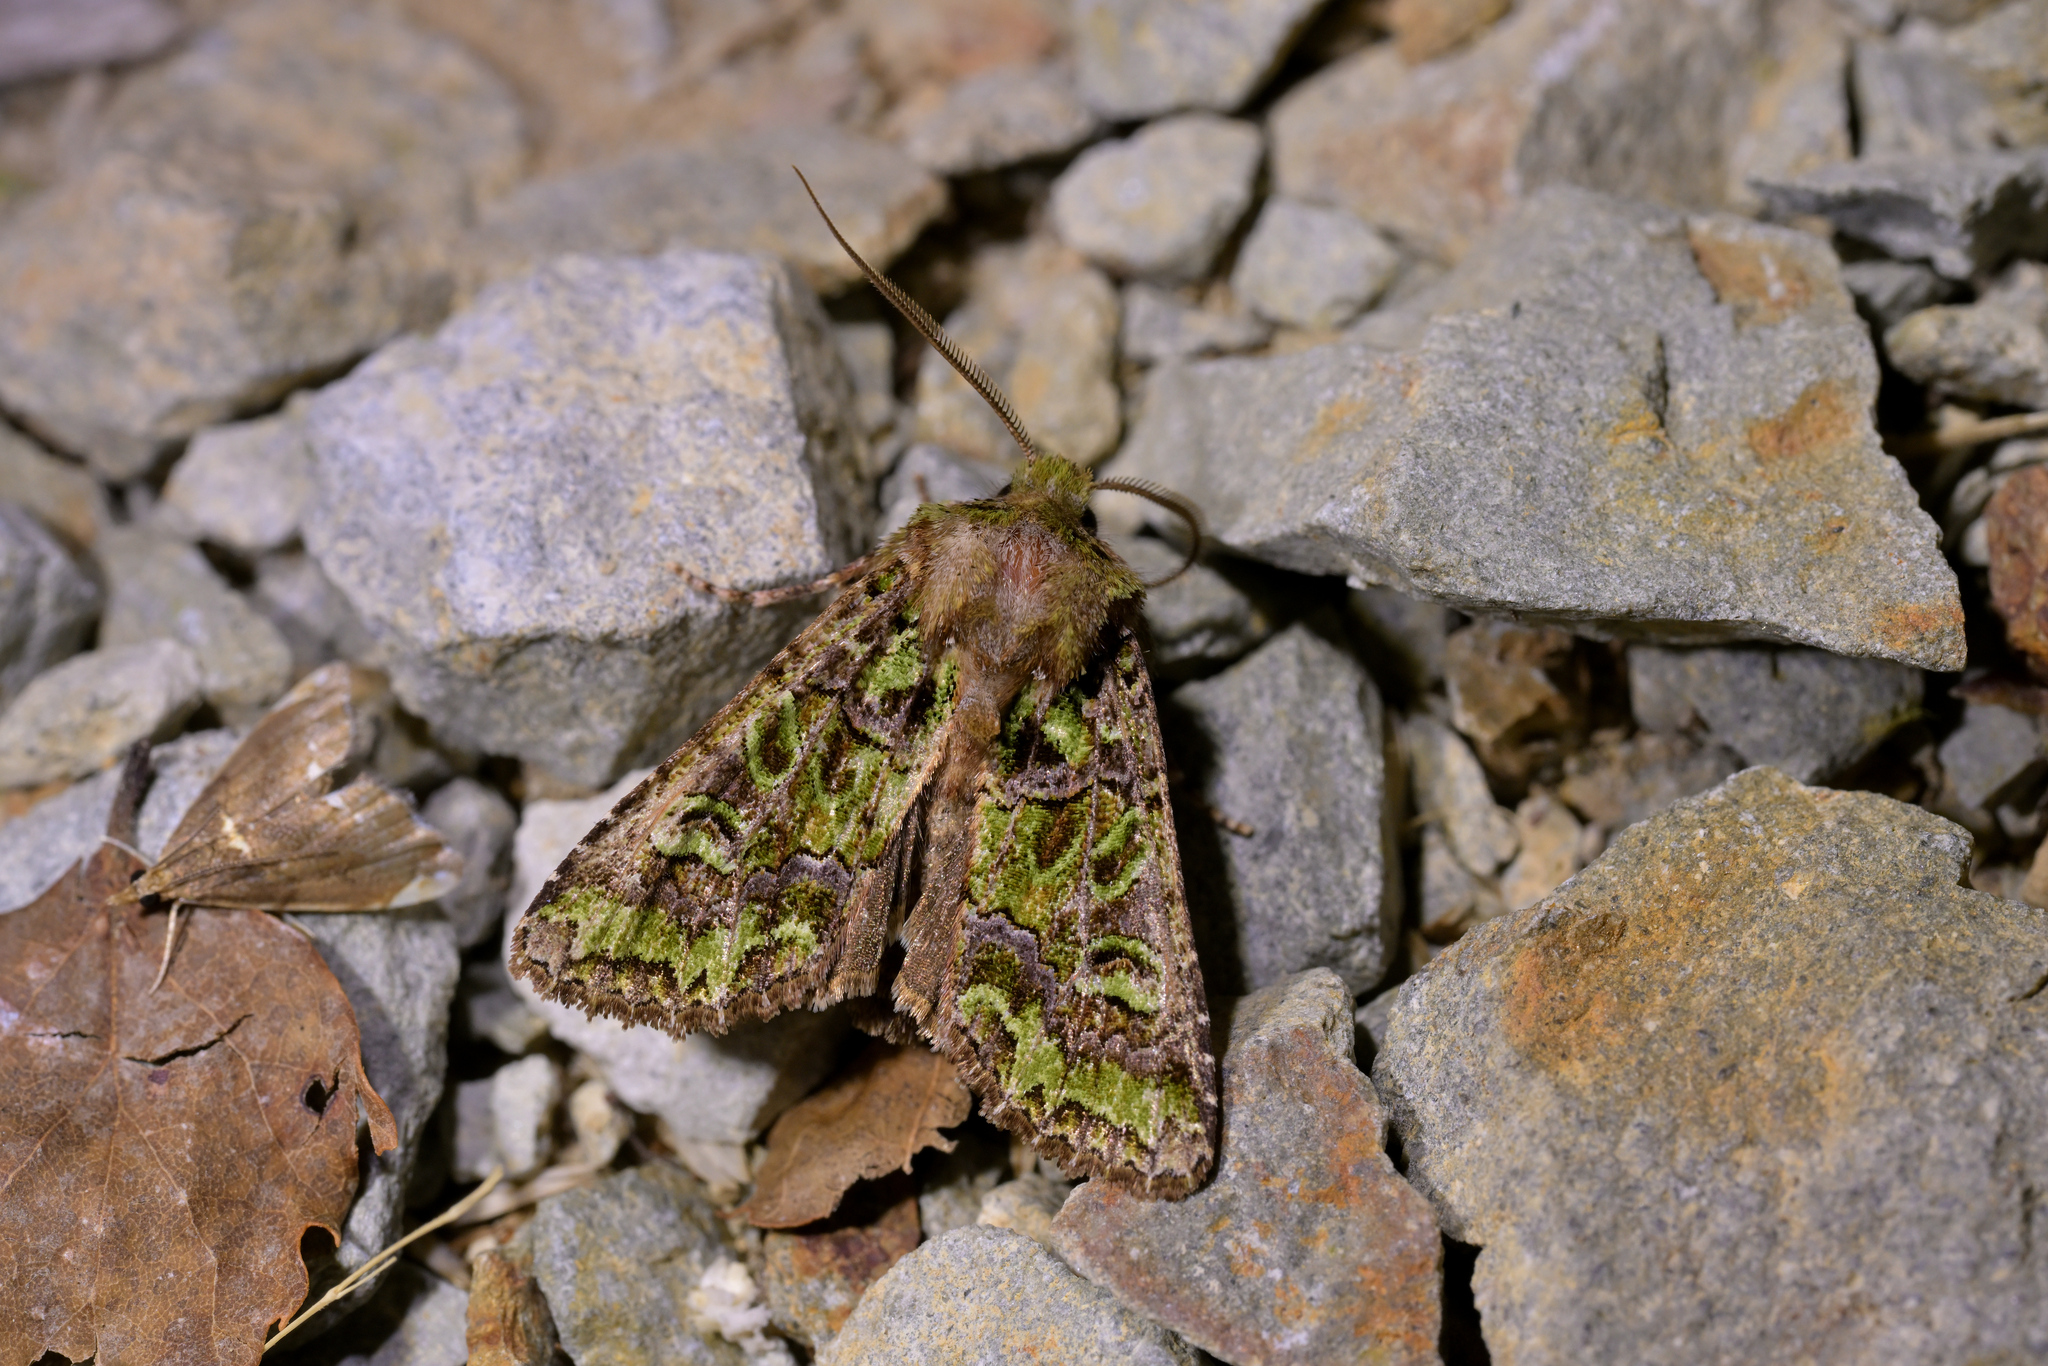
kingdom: Animalia
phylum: Arthropoda
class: Insecta
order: Lepidoptera
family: Noctuidae
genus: Ichneutica
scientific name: Ichneutica chlorodonta
